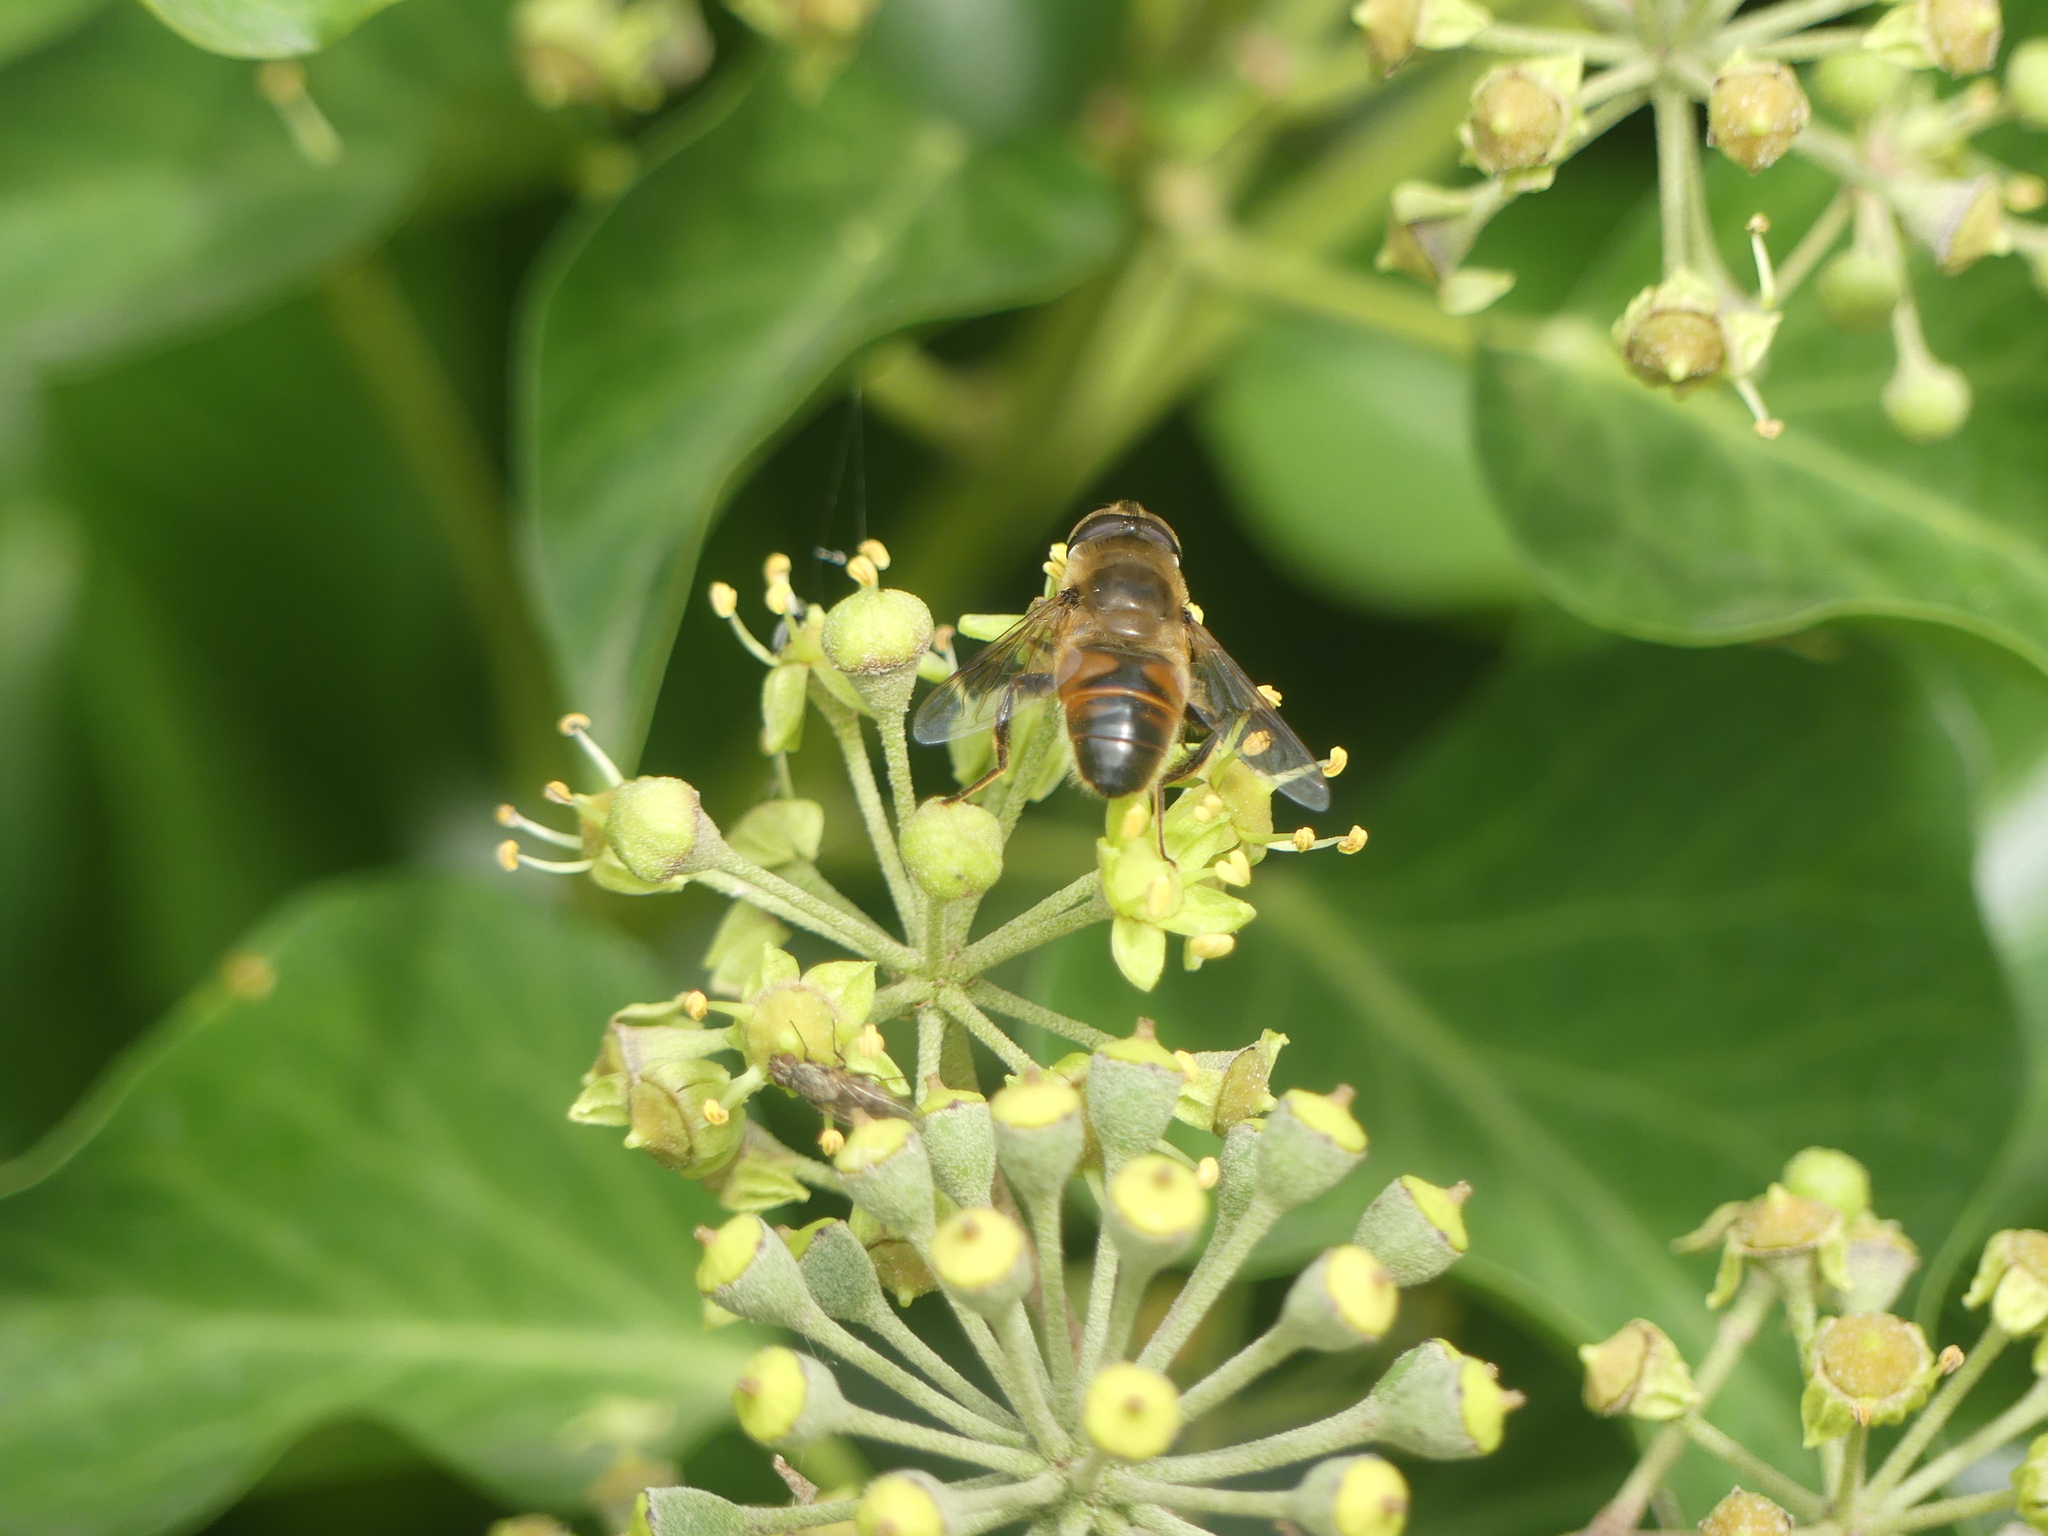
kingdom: Animalia
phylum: Arthropoda
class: Insecta
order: Diptera
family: Syrphidae
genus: Eristalis
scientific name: Eristalis tenax
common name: Drone fly
